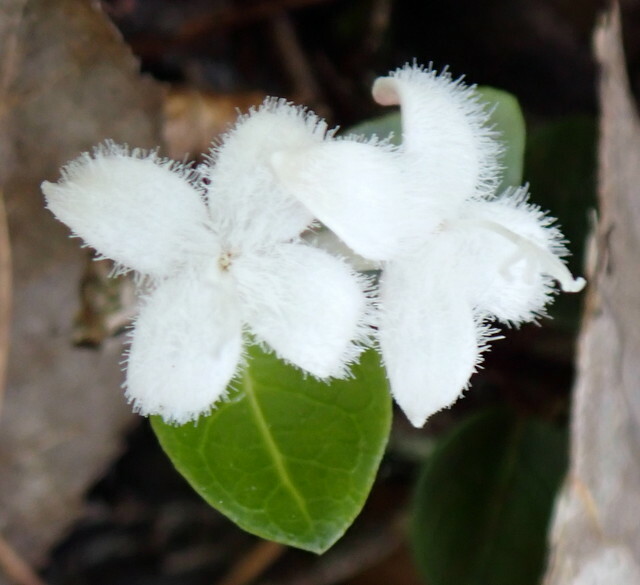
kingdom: Plantae
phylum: Tracheophyta
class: Magnoliopsida
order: Gentianales
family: Rubiaceae
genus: Mitchella
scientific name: Mitchella repens
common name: Partridge-berry
